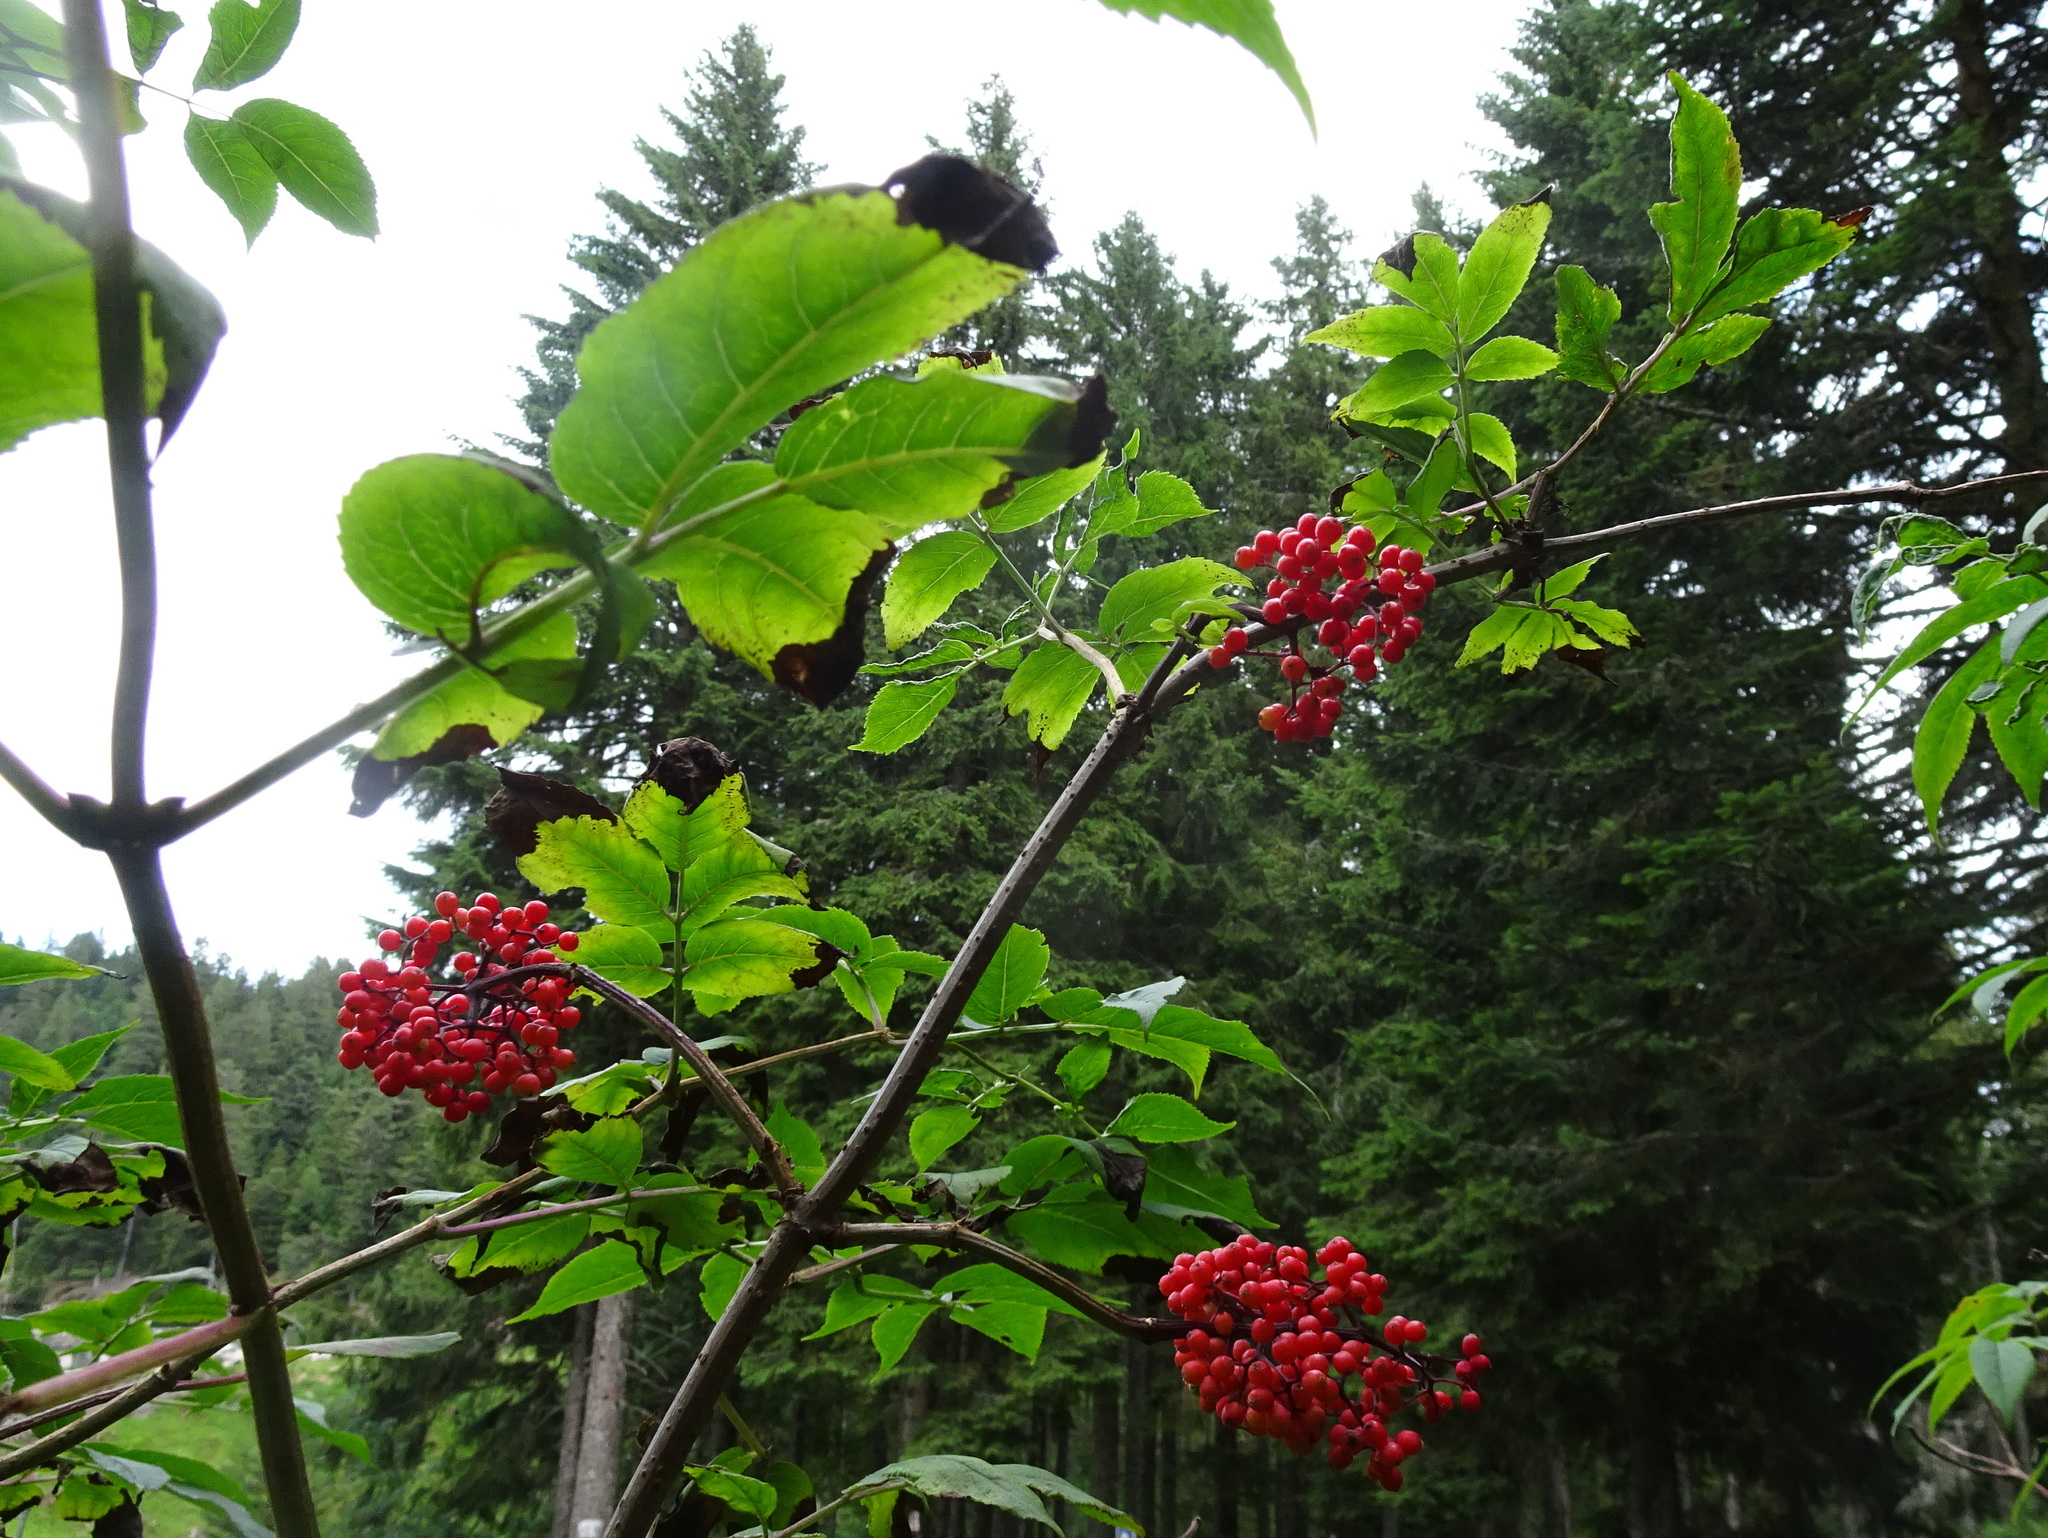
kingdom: Plantae
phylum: Tracheophyta
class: Magnoliopsida
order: Dipsacales
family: Viburnaceae
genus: Sambucus
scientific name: Sambucus racemosa
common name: Red-berried elder
